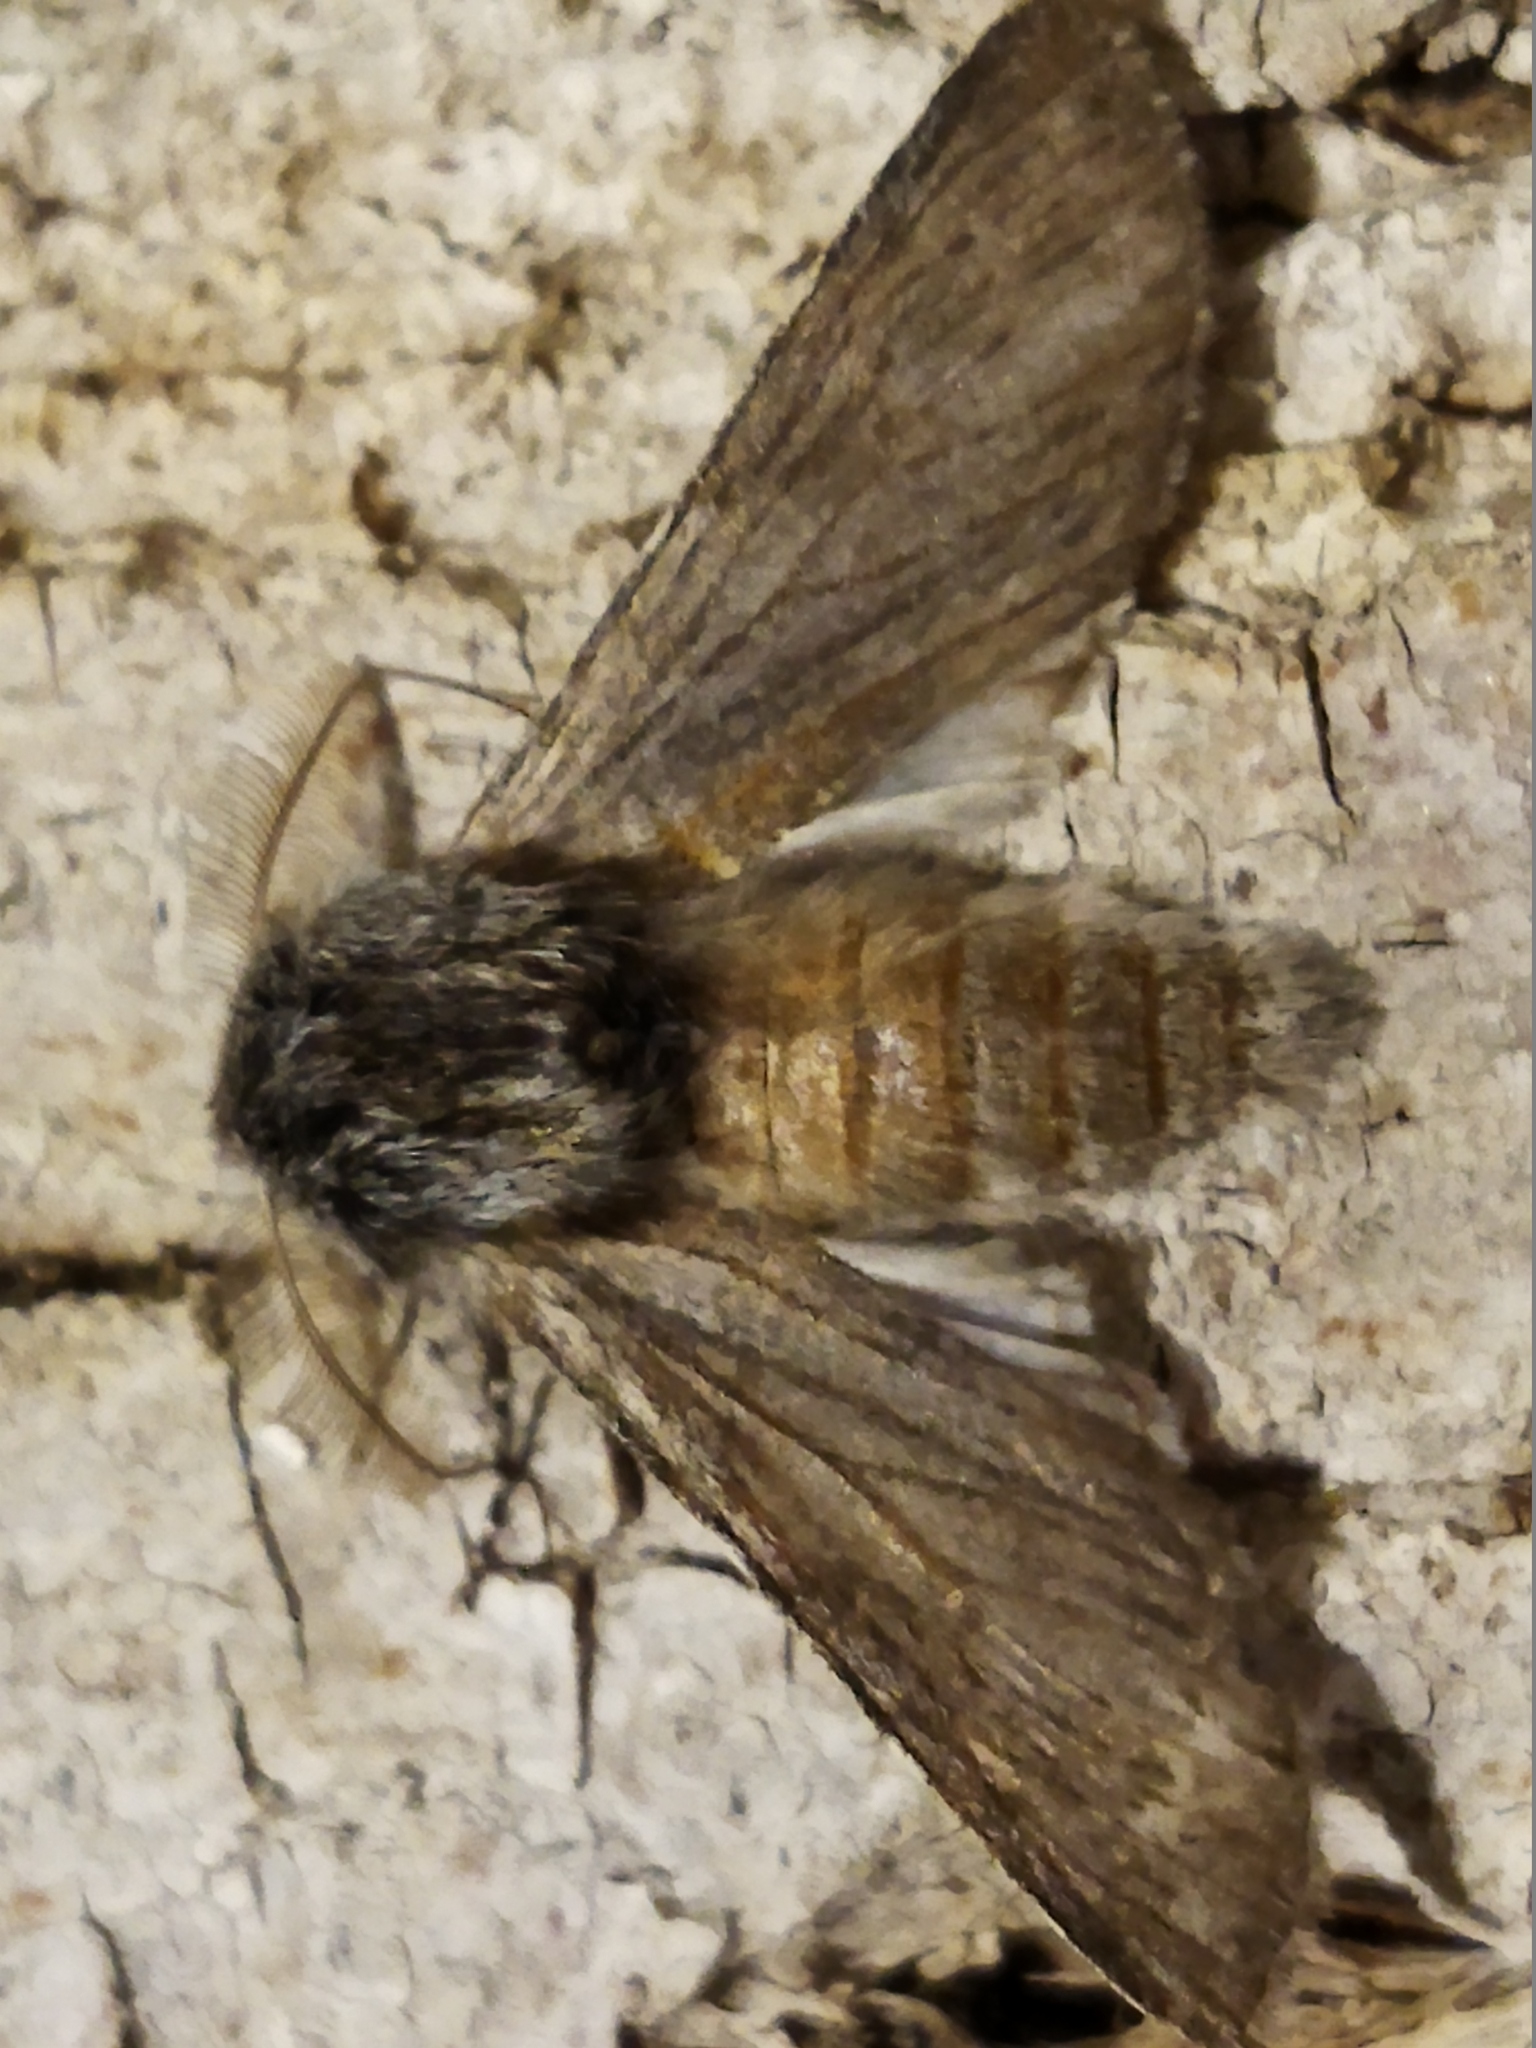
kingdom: Animalia
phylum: Arthropoda
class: Insecta
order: Lepidoptera
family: Notodontidae
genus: Dicranura
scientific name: Dicranura ulmi
